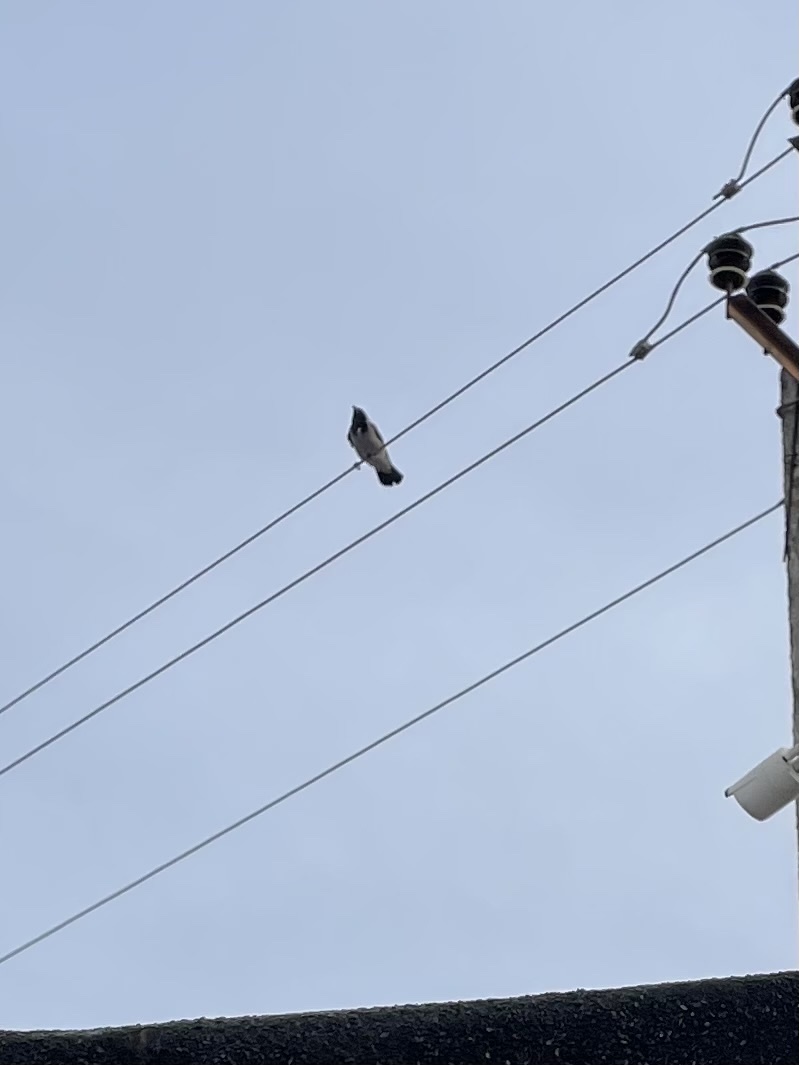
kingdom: Animalia
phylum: Chordata
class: Aves
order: Passeriformes
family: Corvidae
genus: Corvus
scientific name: Corvus cornix
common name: Hooded crow
